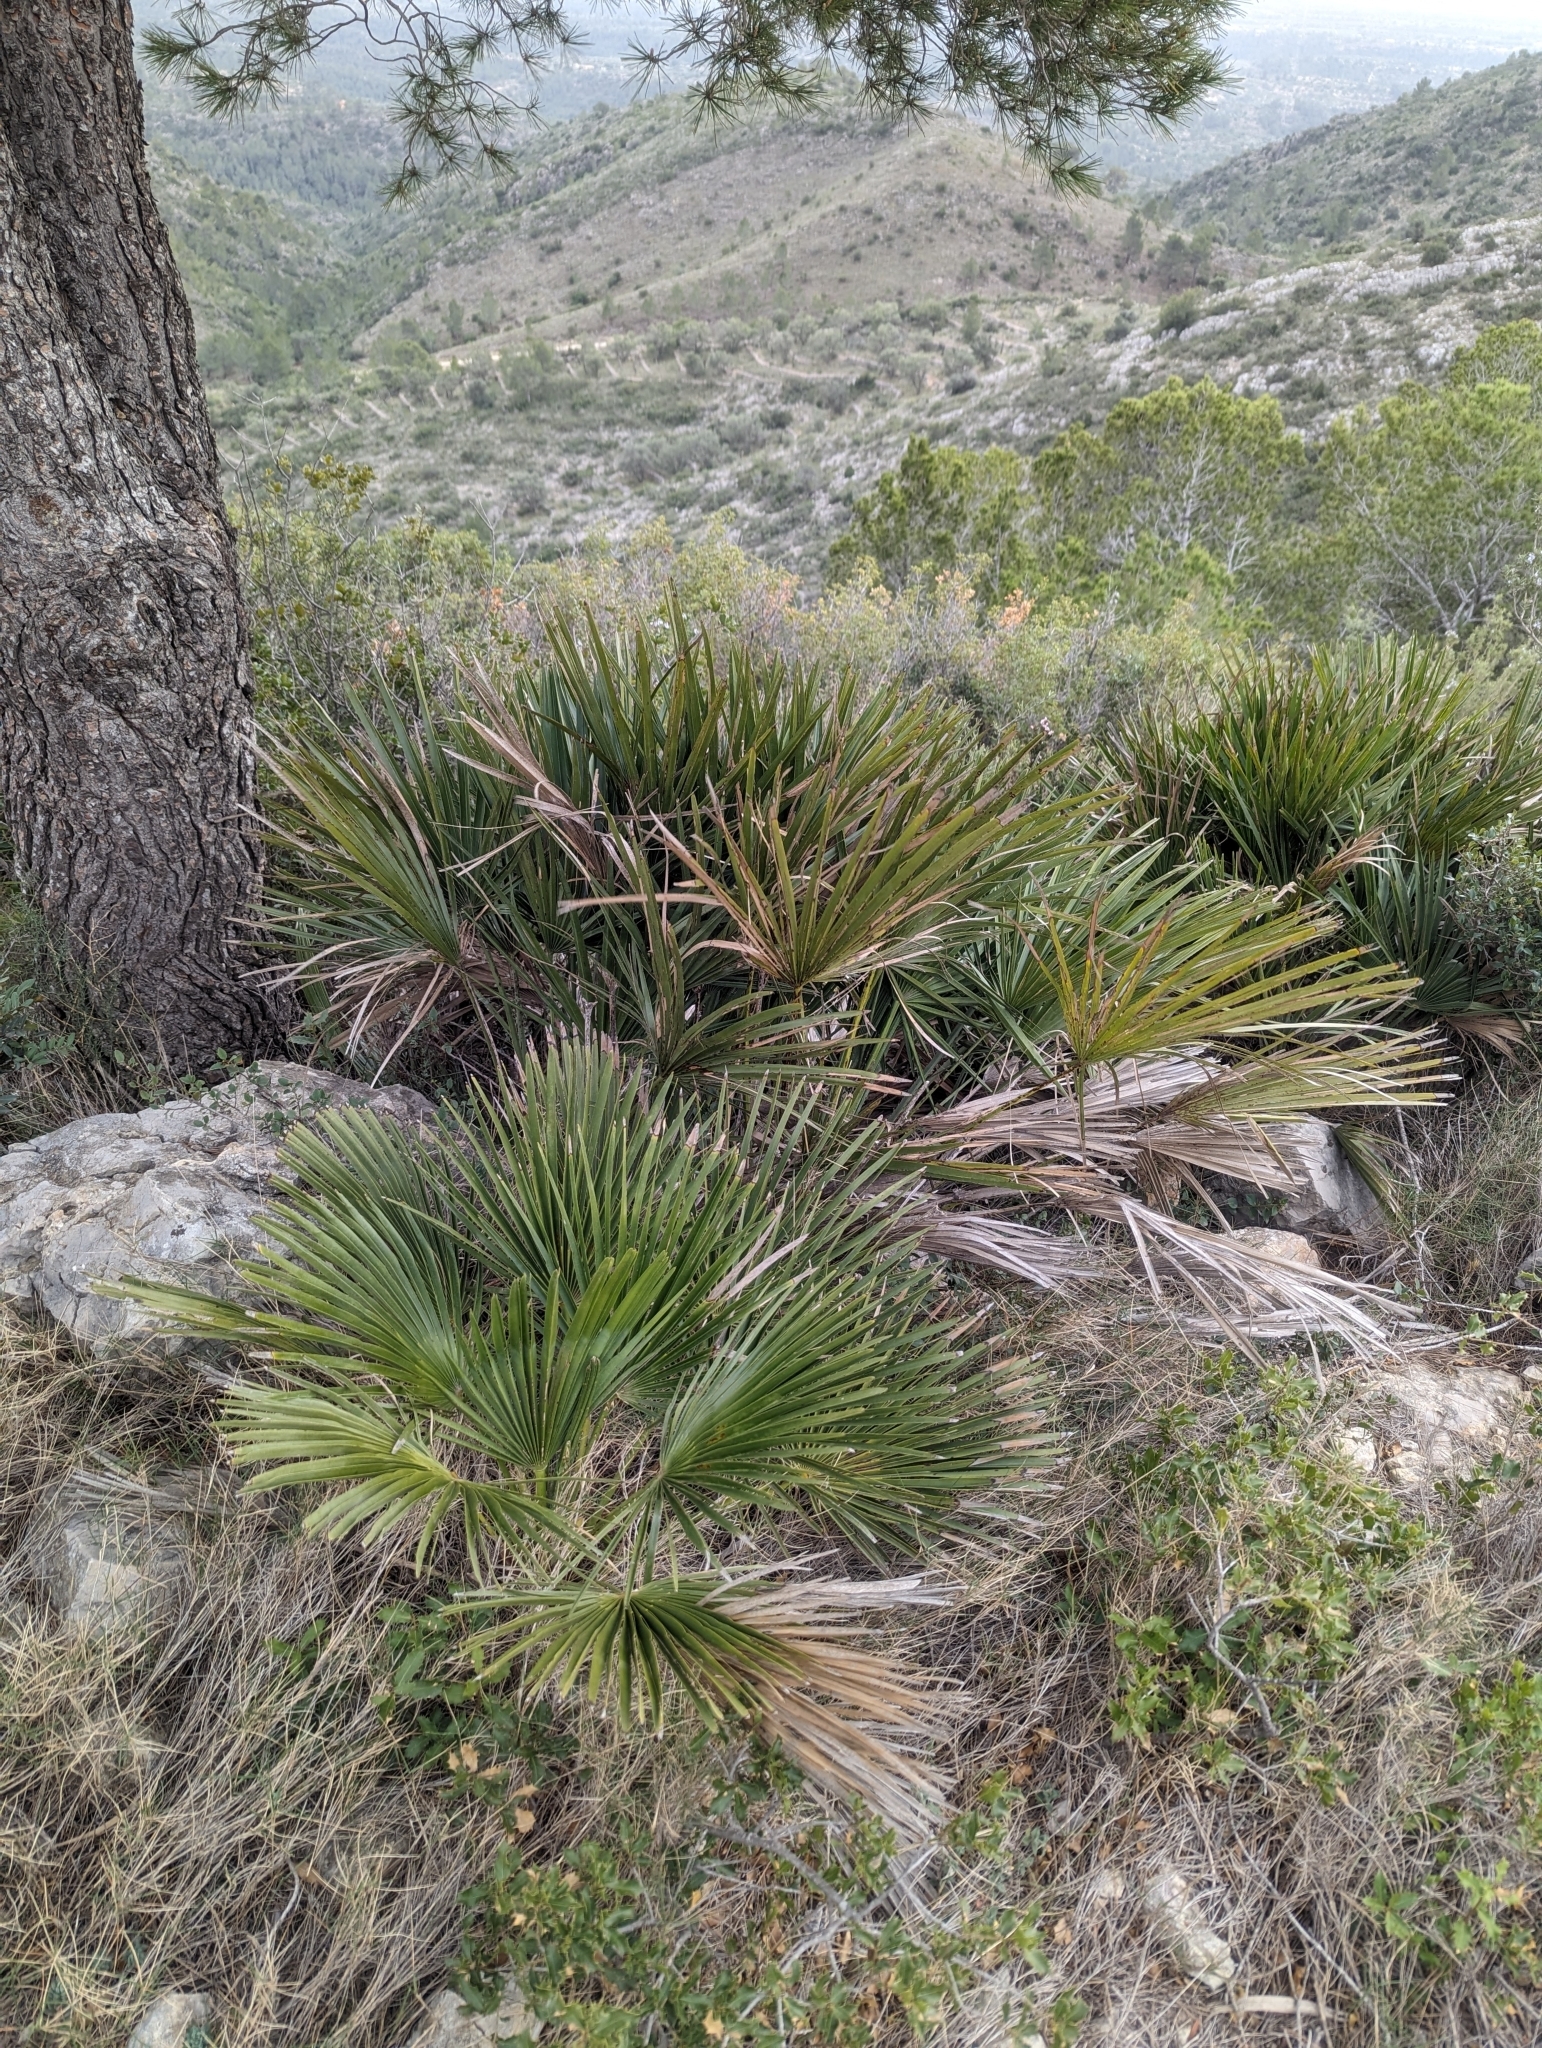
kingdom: Plantae
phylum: Tracheophyta
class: Liliopsida
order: Arecales
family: Arecaceae
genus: Chamaerops
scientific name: Chamaerops humilis
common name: Dwarf fan palm
